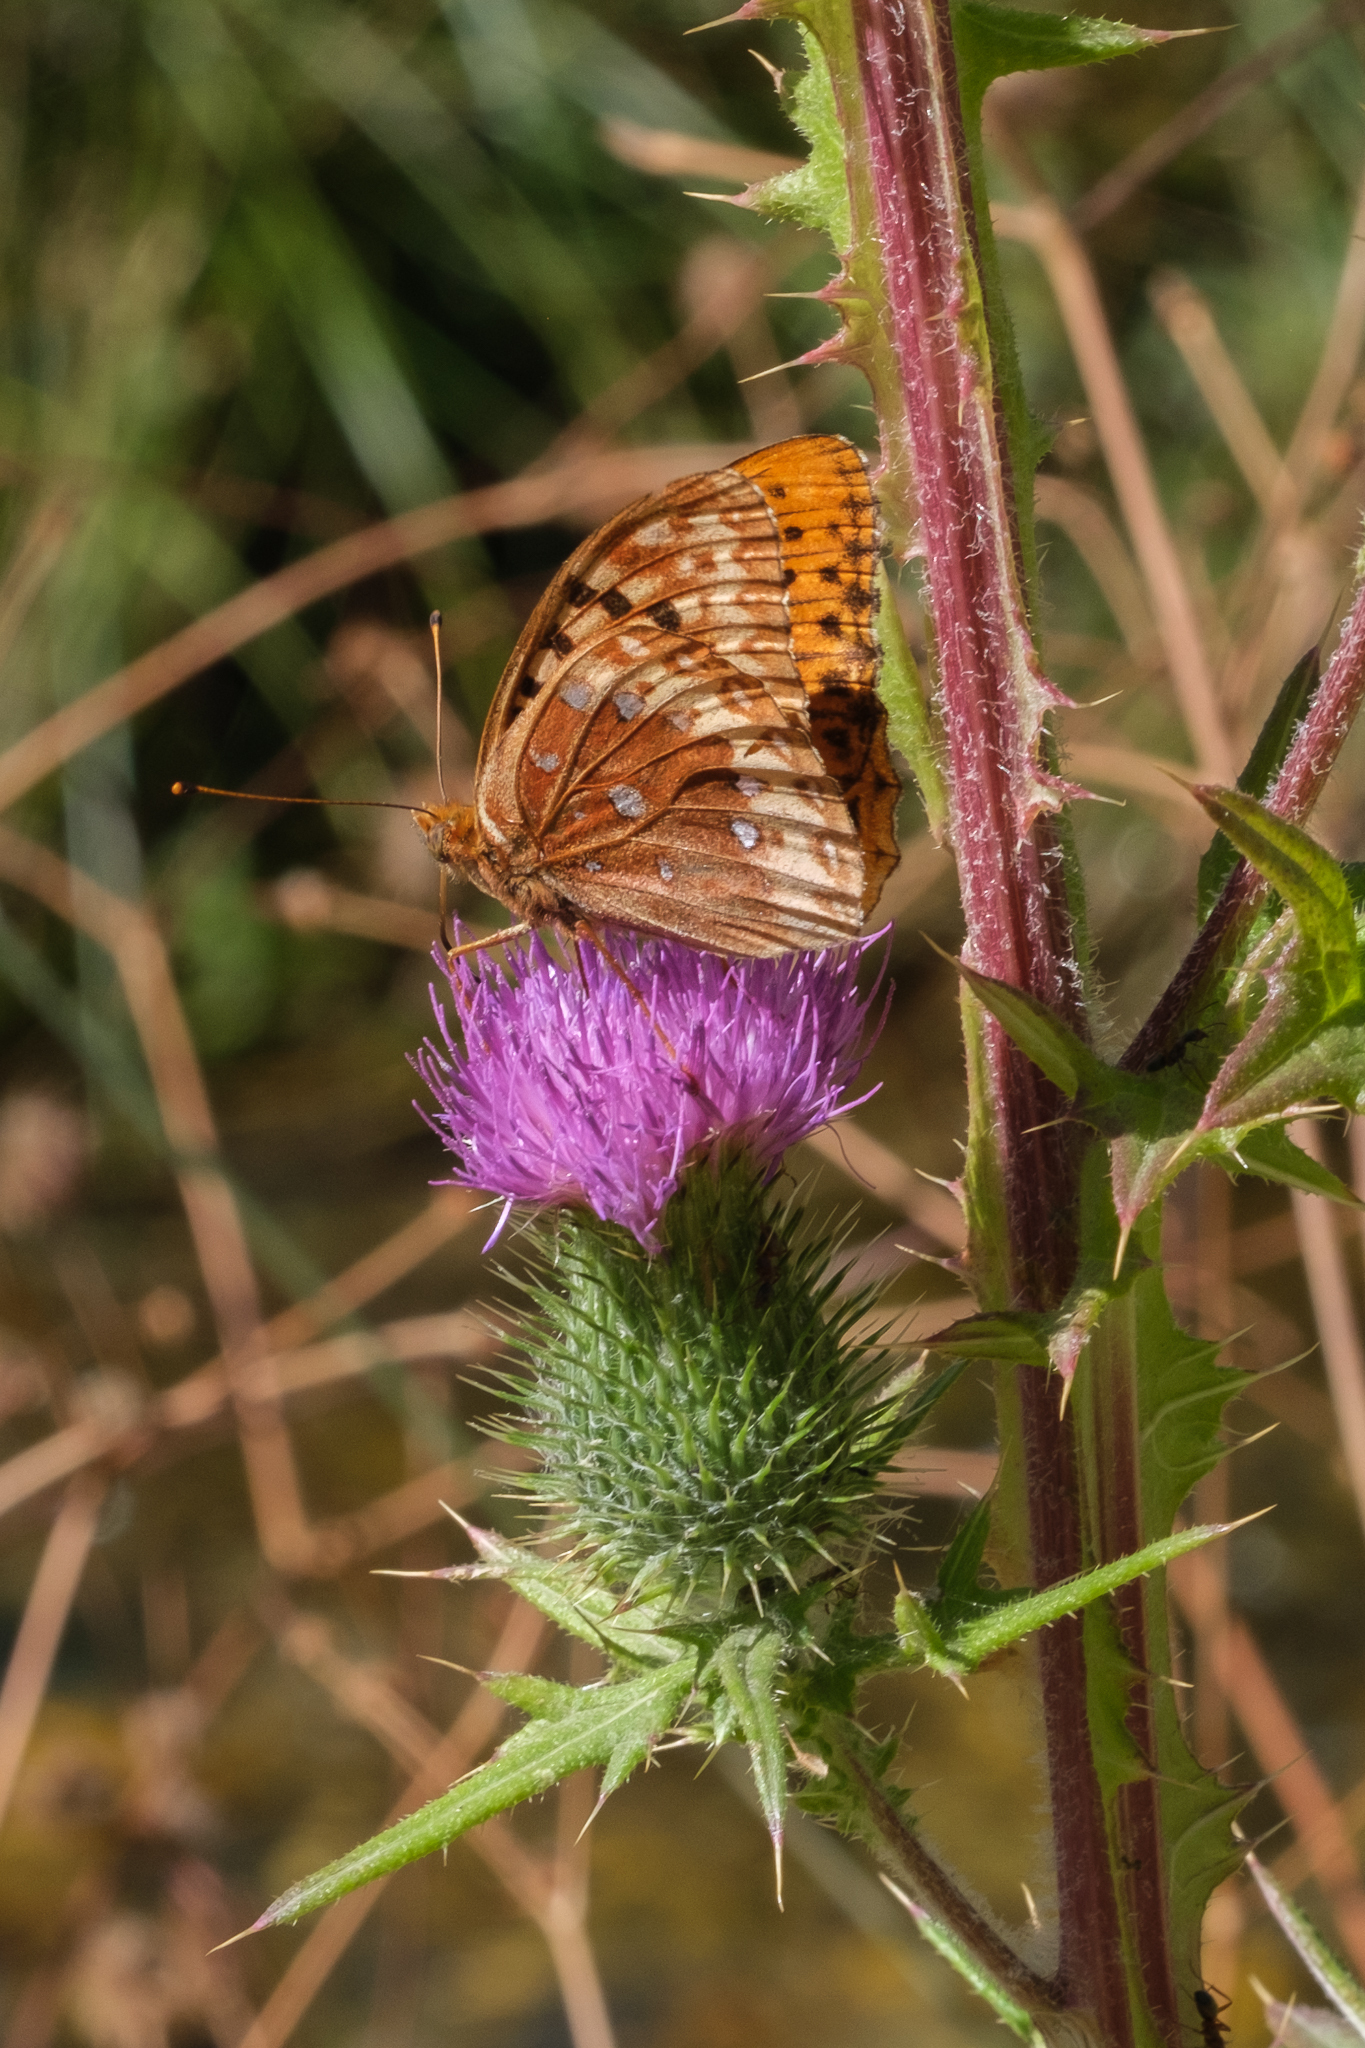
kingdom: Animalia
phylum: Arthropoda
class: Insecta
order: Lepidoptera
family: Nymphalidae
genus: Speyeria
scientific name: Speyeria cybele
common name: Great spangled fritillary
